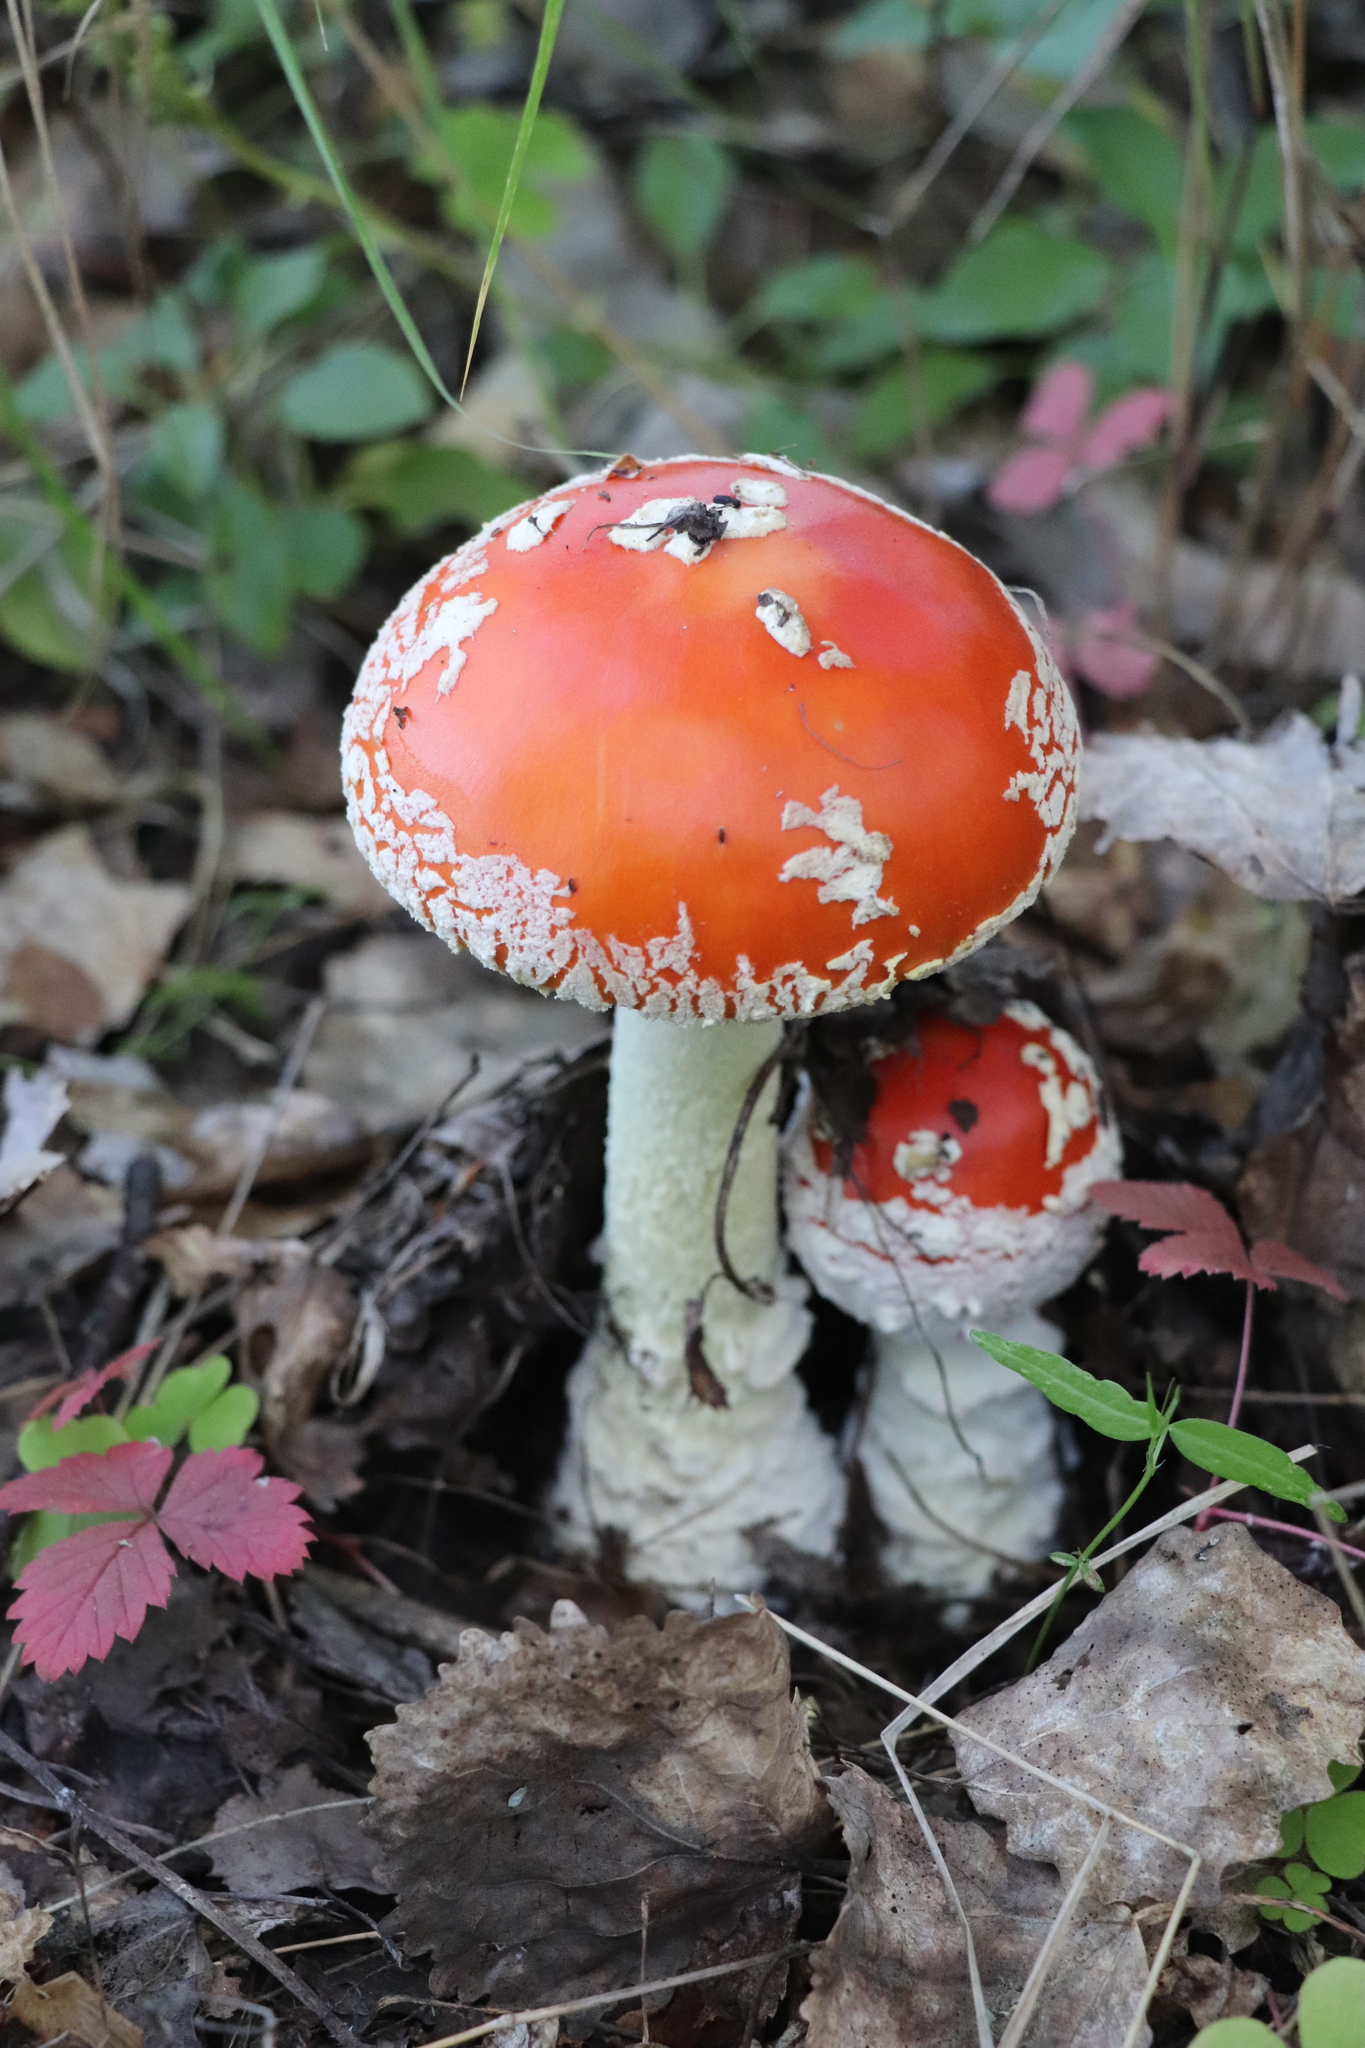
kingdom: Fungi
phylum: Basidiomycota
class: Agaricomycetes
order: Agaricales
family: Amanitaceae
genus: Amanita
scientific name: Amanita muscaria
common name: Fly agaric
